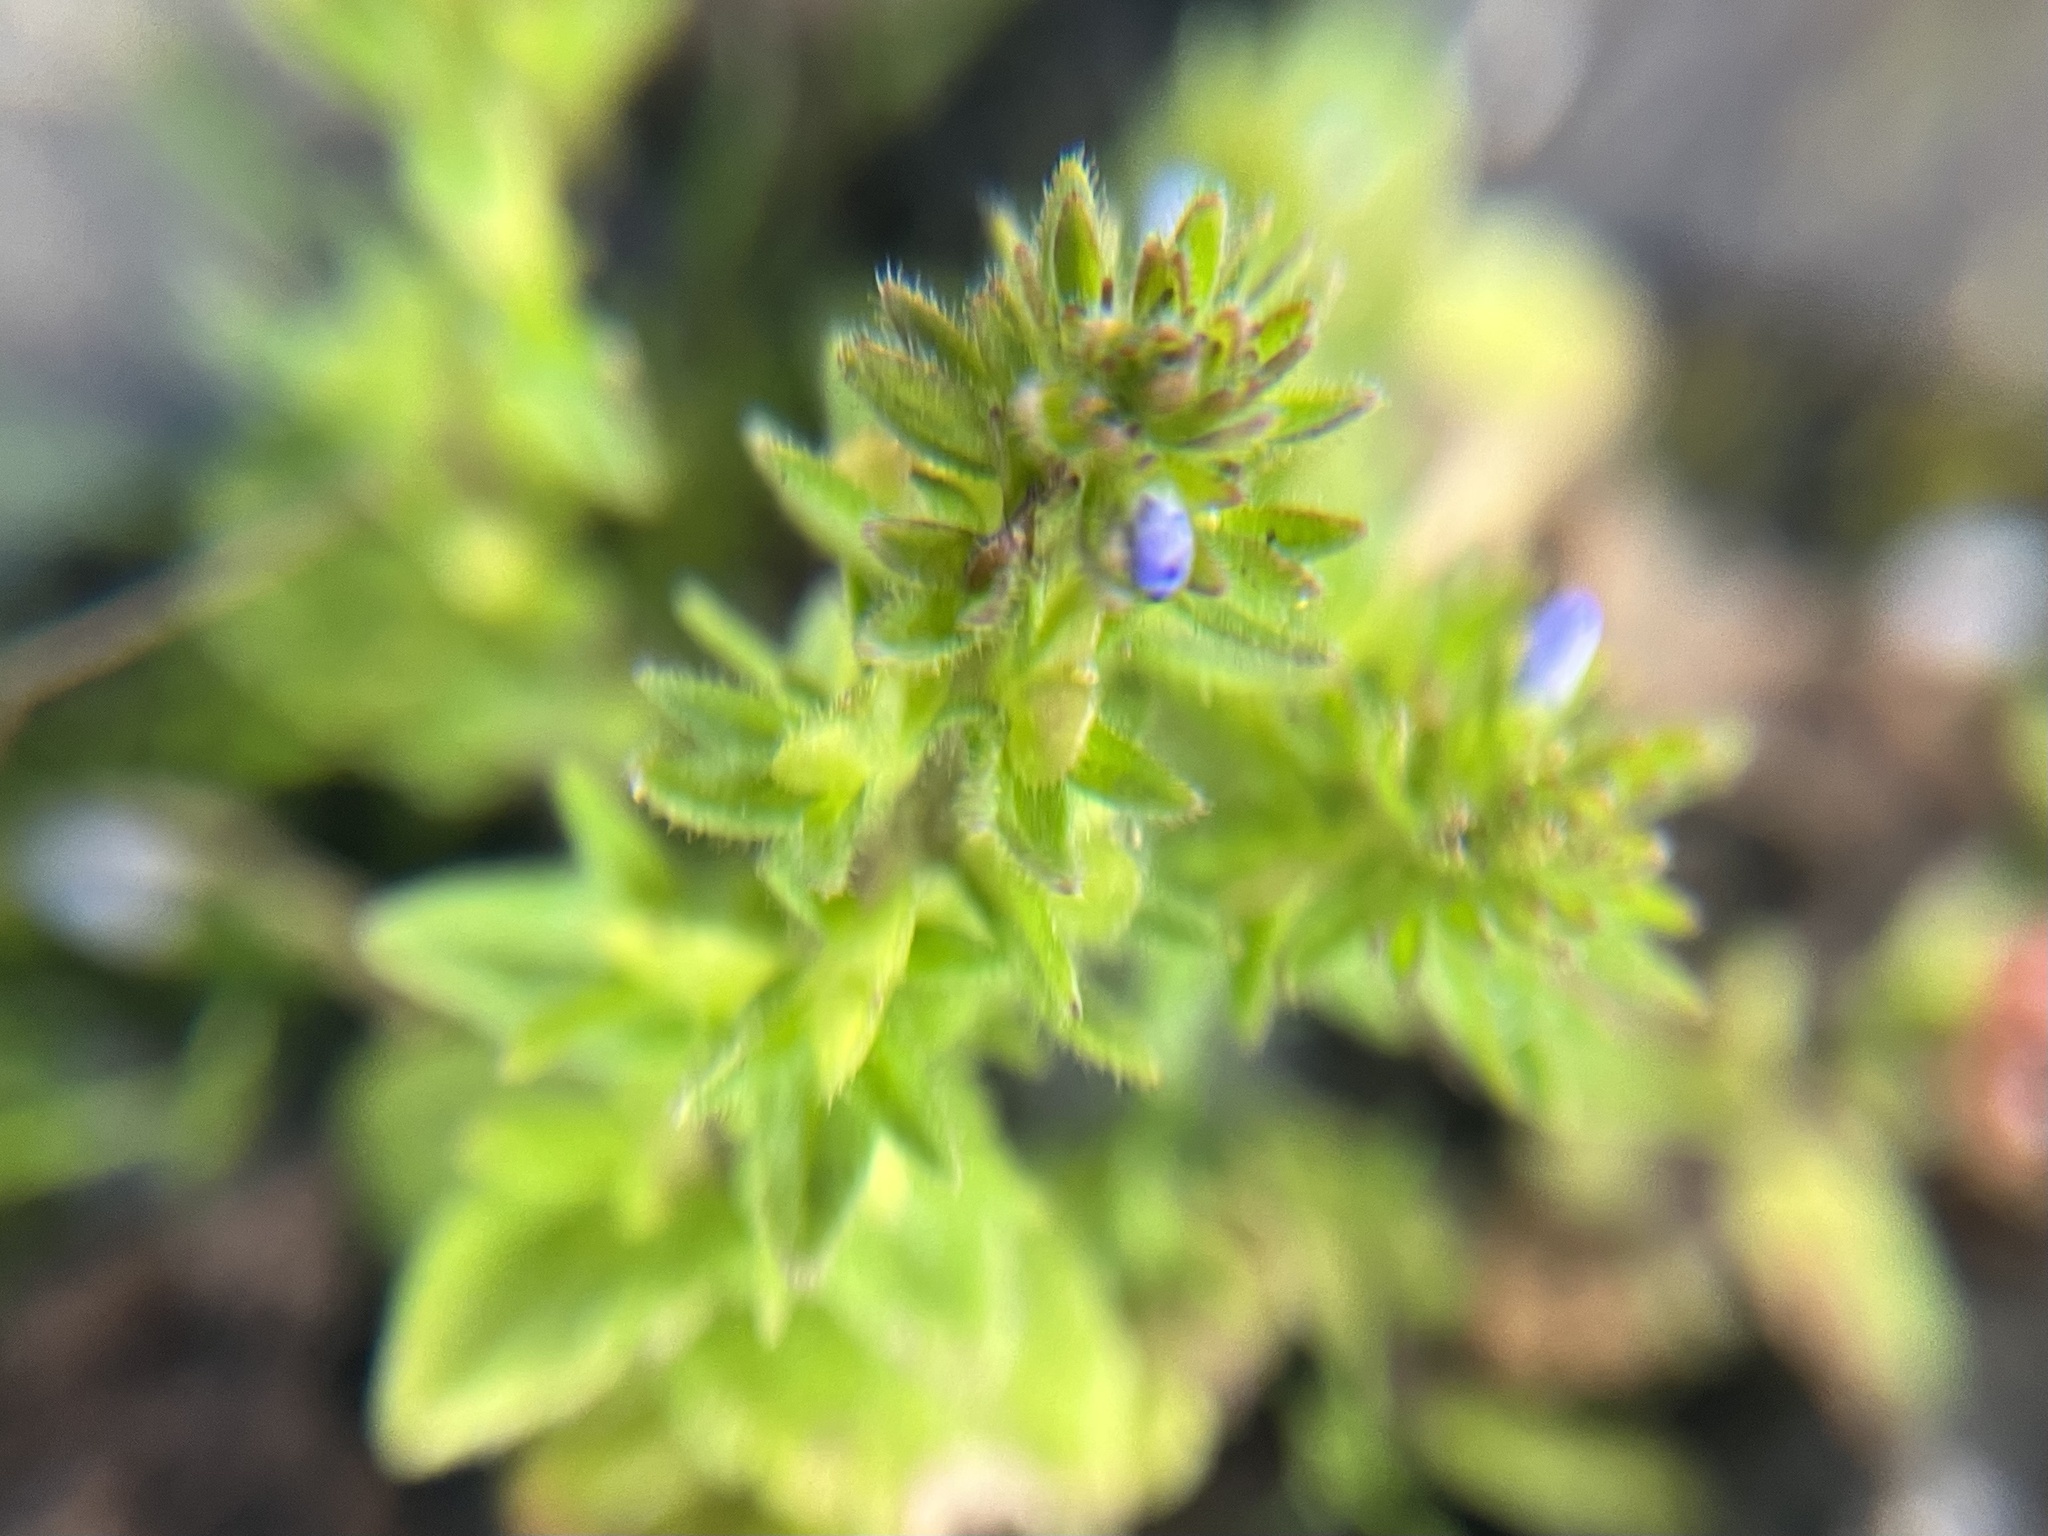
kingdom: Plantae
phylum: Tracheophyta
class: Magnoliopsida
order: Lamiales
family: Plantaginaceae
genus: Veronica
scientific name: Veronica arvensis
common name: Corn speedwell
